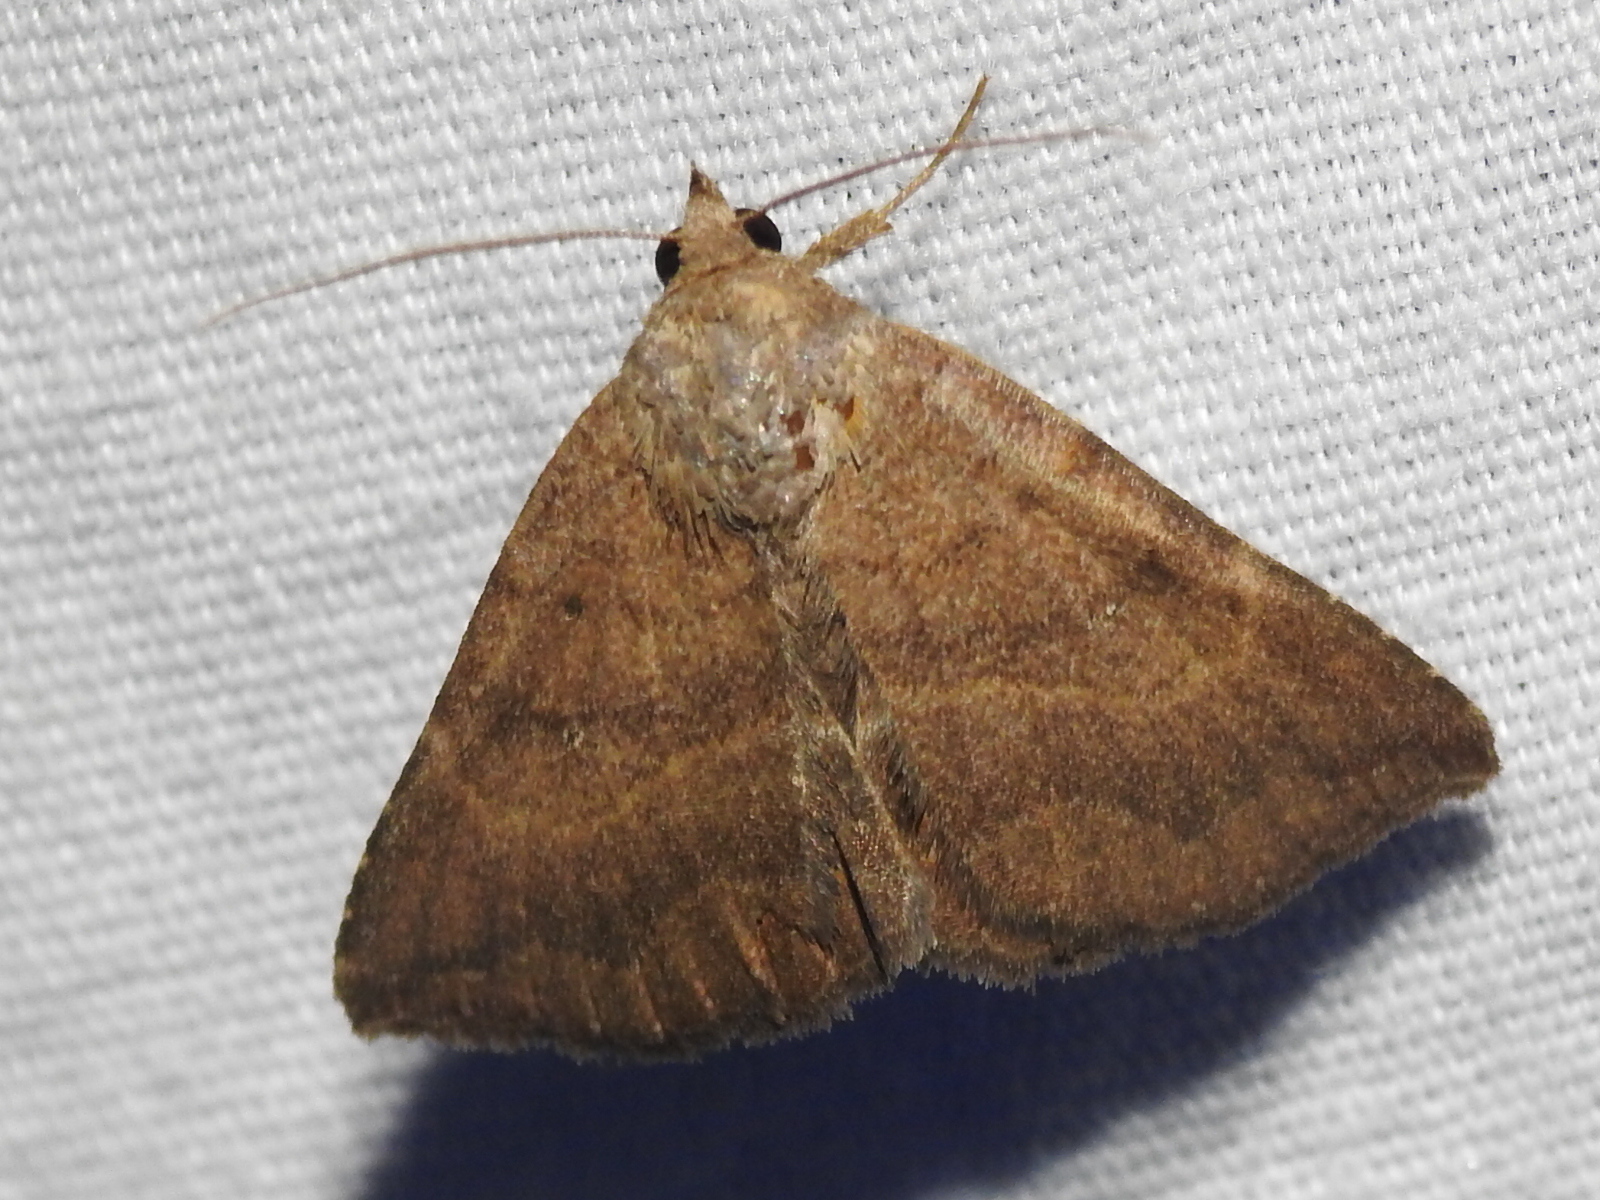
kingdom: Animalia
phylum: Arthropoda
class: Insecta
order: Lepidoptera
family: Erebidae
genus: Lesmone
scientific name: Lesmone detrahens
